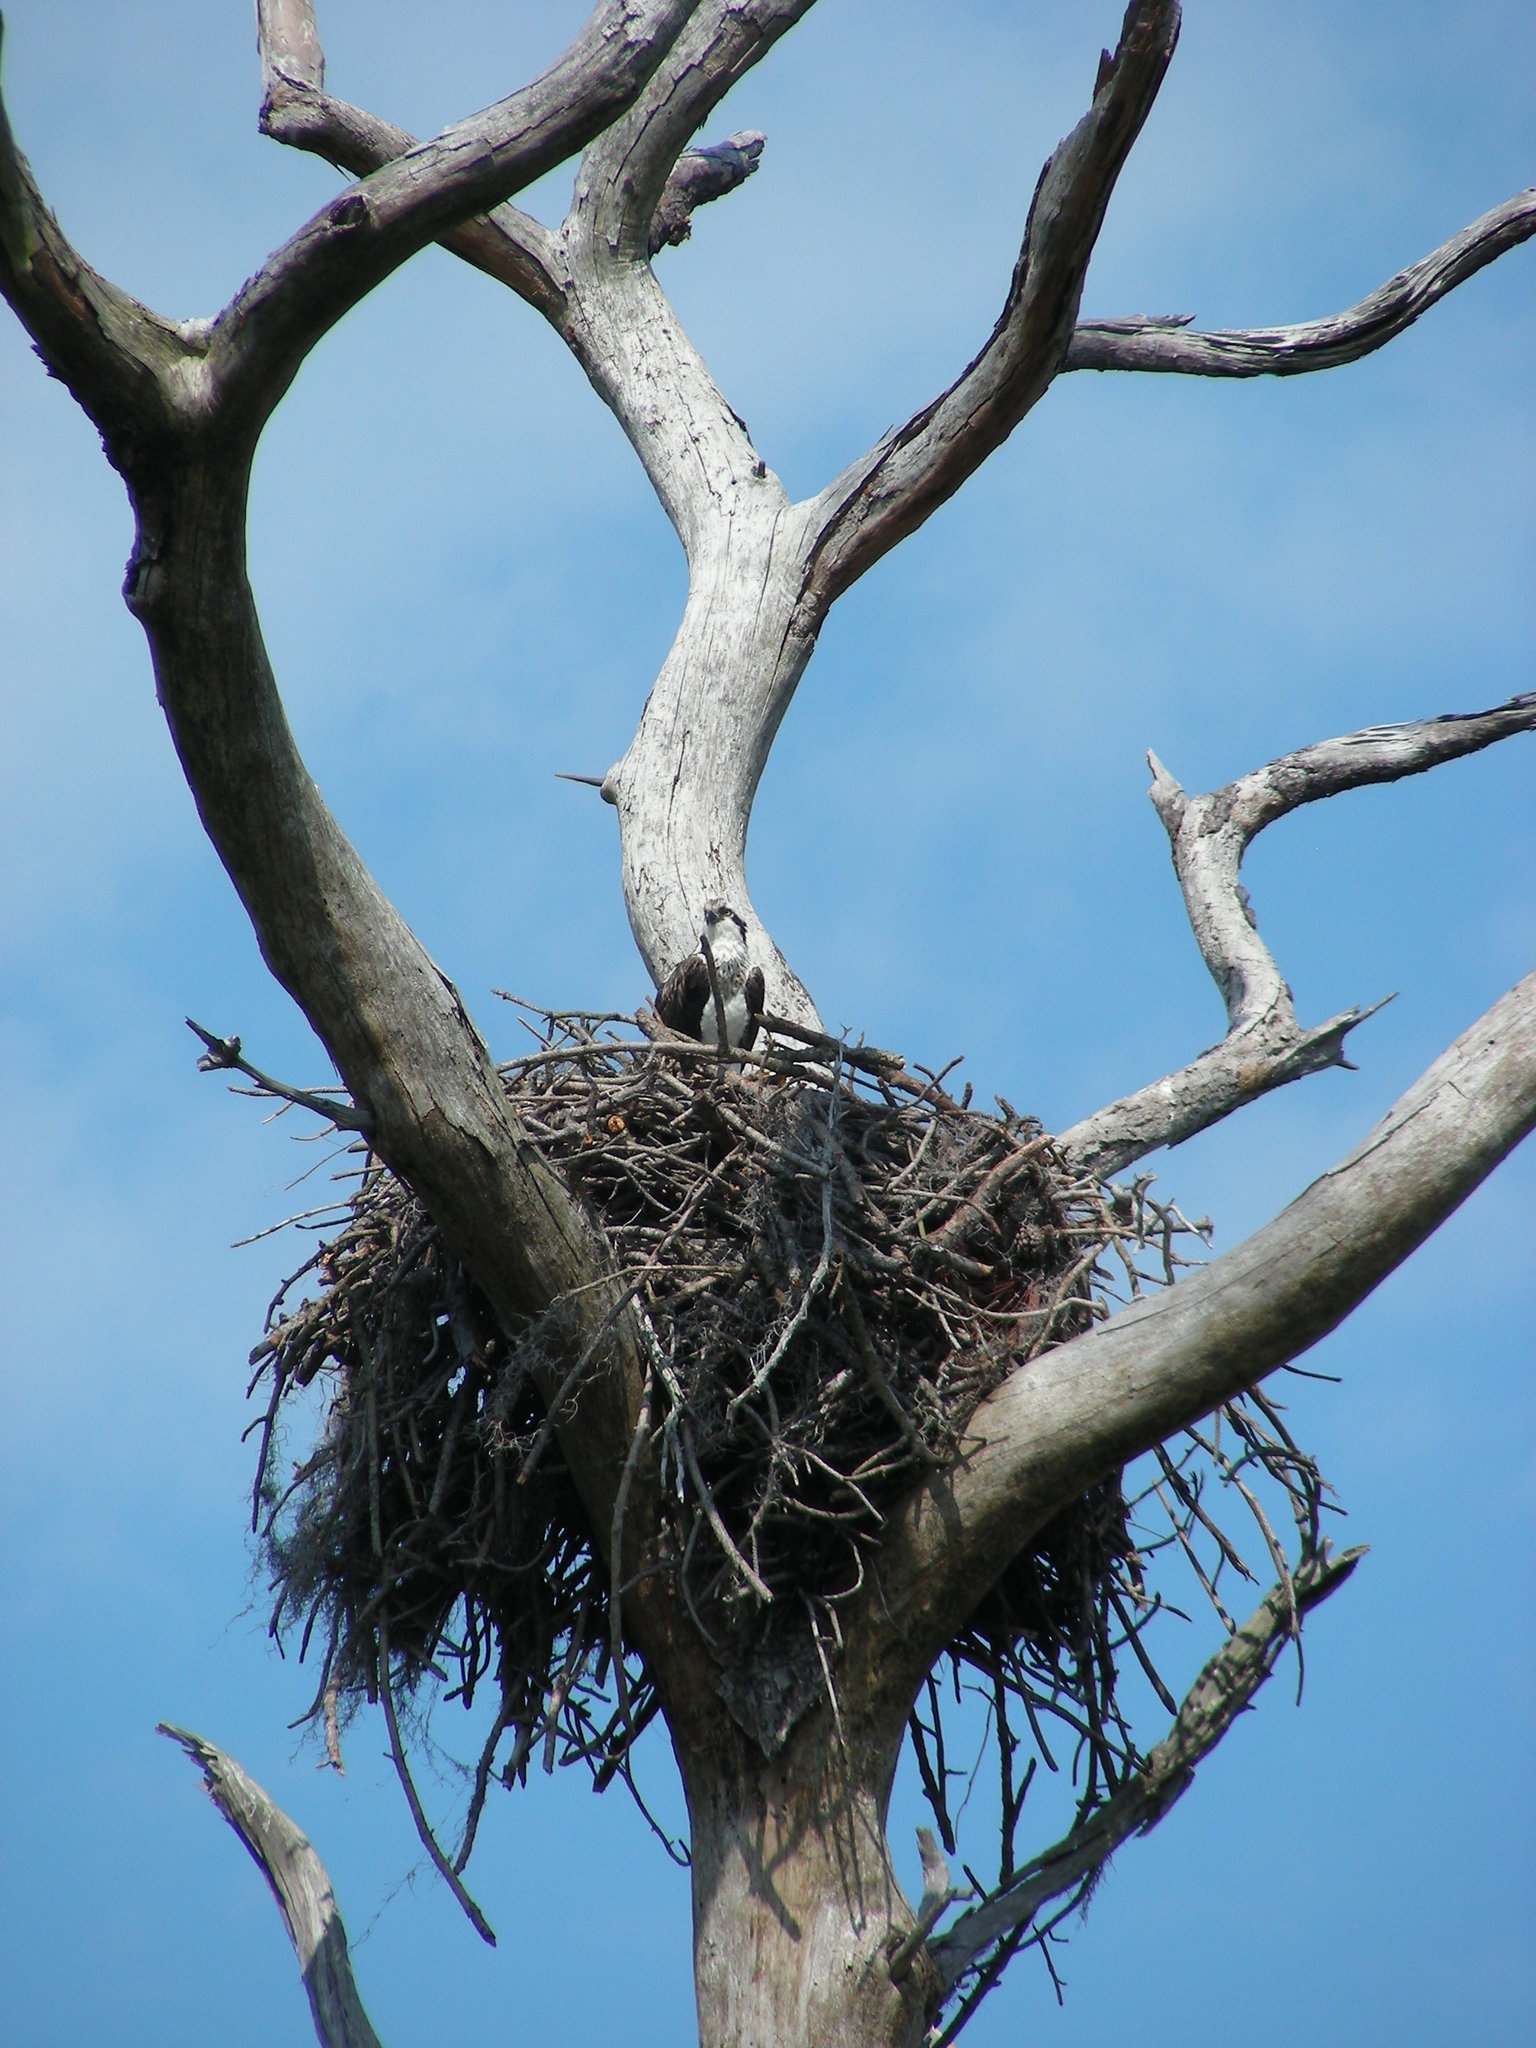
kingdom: Animalia
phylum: Chordata
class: Aves
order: Accipitriformes
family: Pandionidae
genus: Pandion
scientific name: Pandion haliaetus
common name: Osprey
